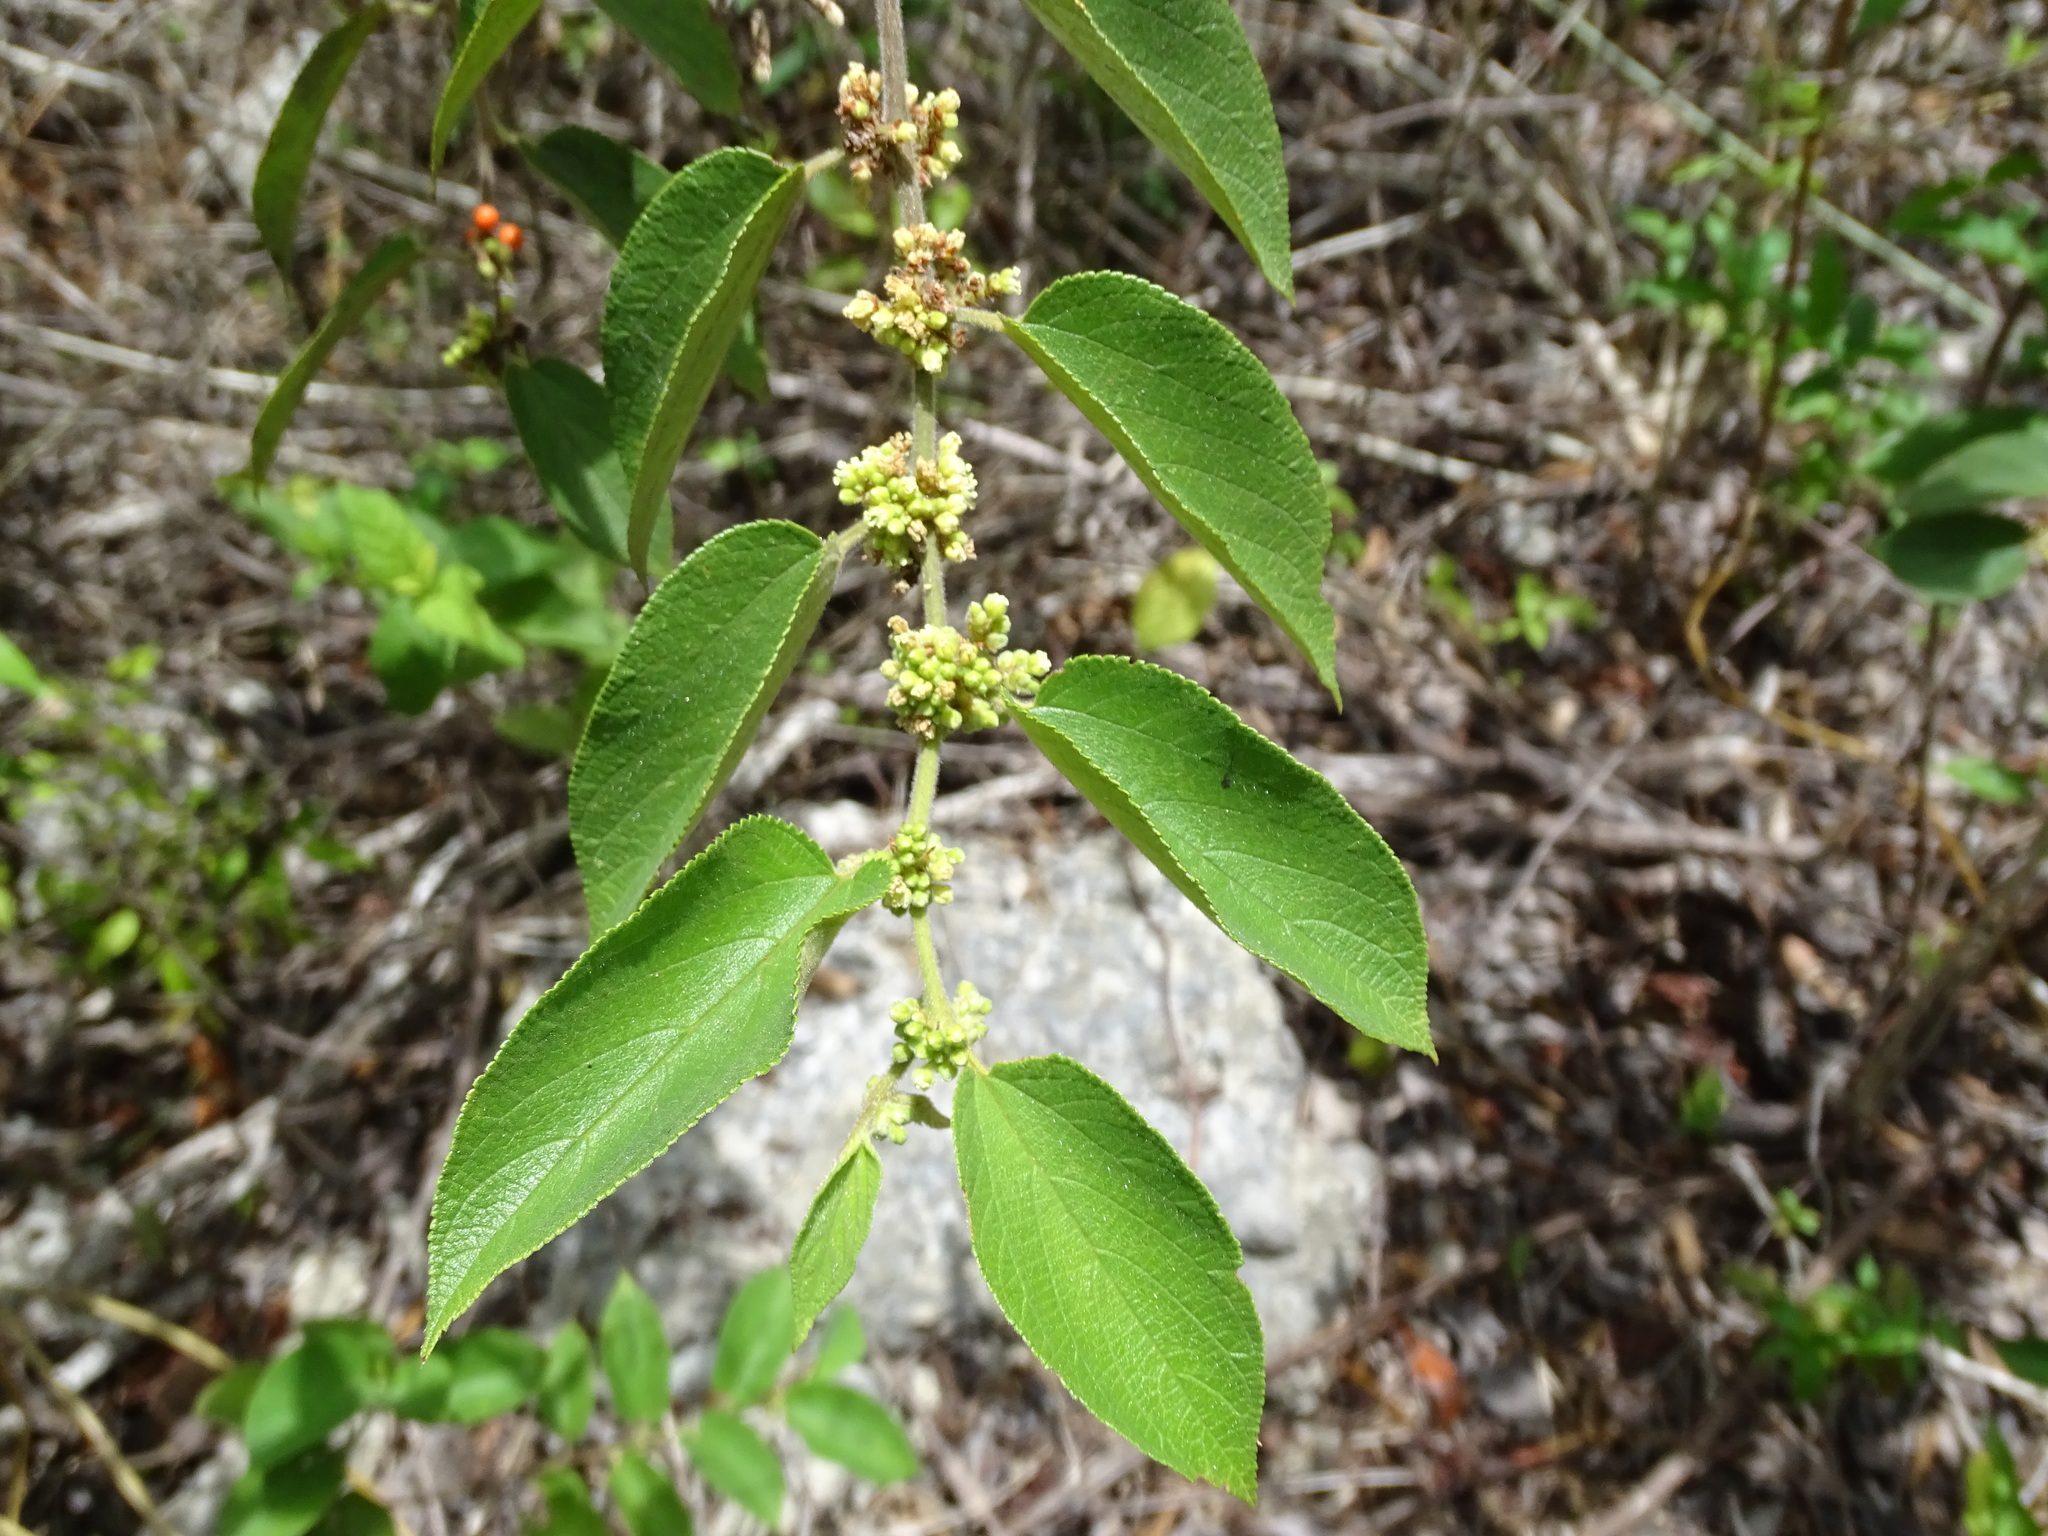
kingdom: Plantae
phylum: Tracheophyta
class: Magnoliopsida
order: Rosales
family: Cannabaceae
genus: Trema
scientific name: Trema micranthum
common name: Jamaican nettletree
